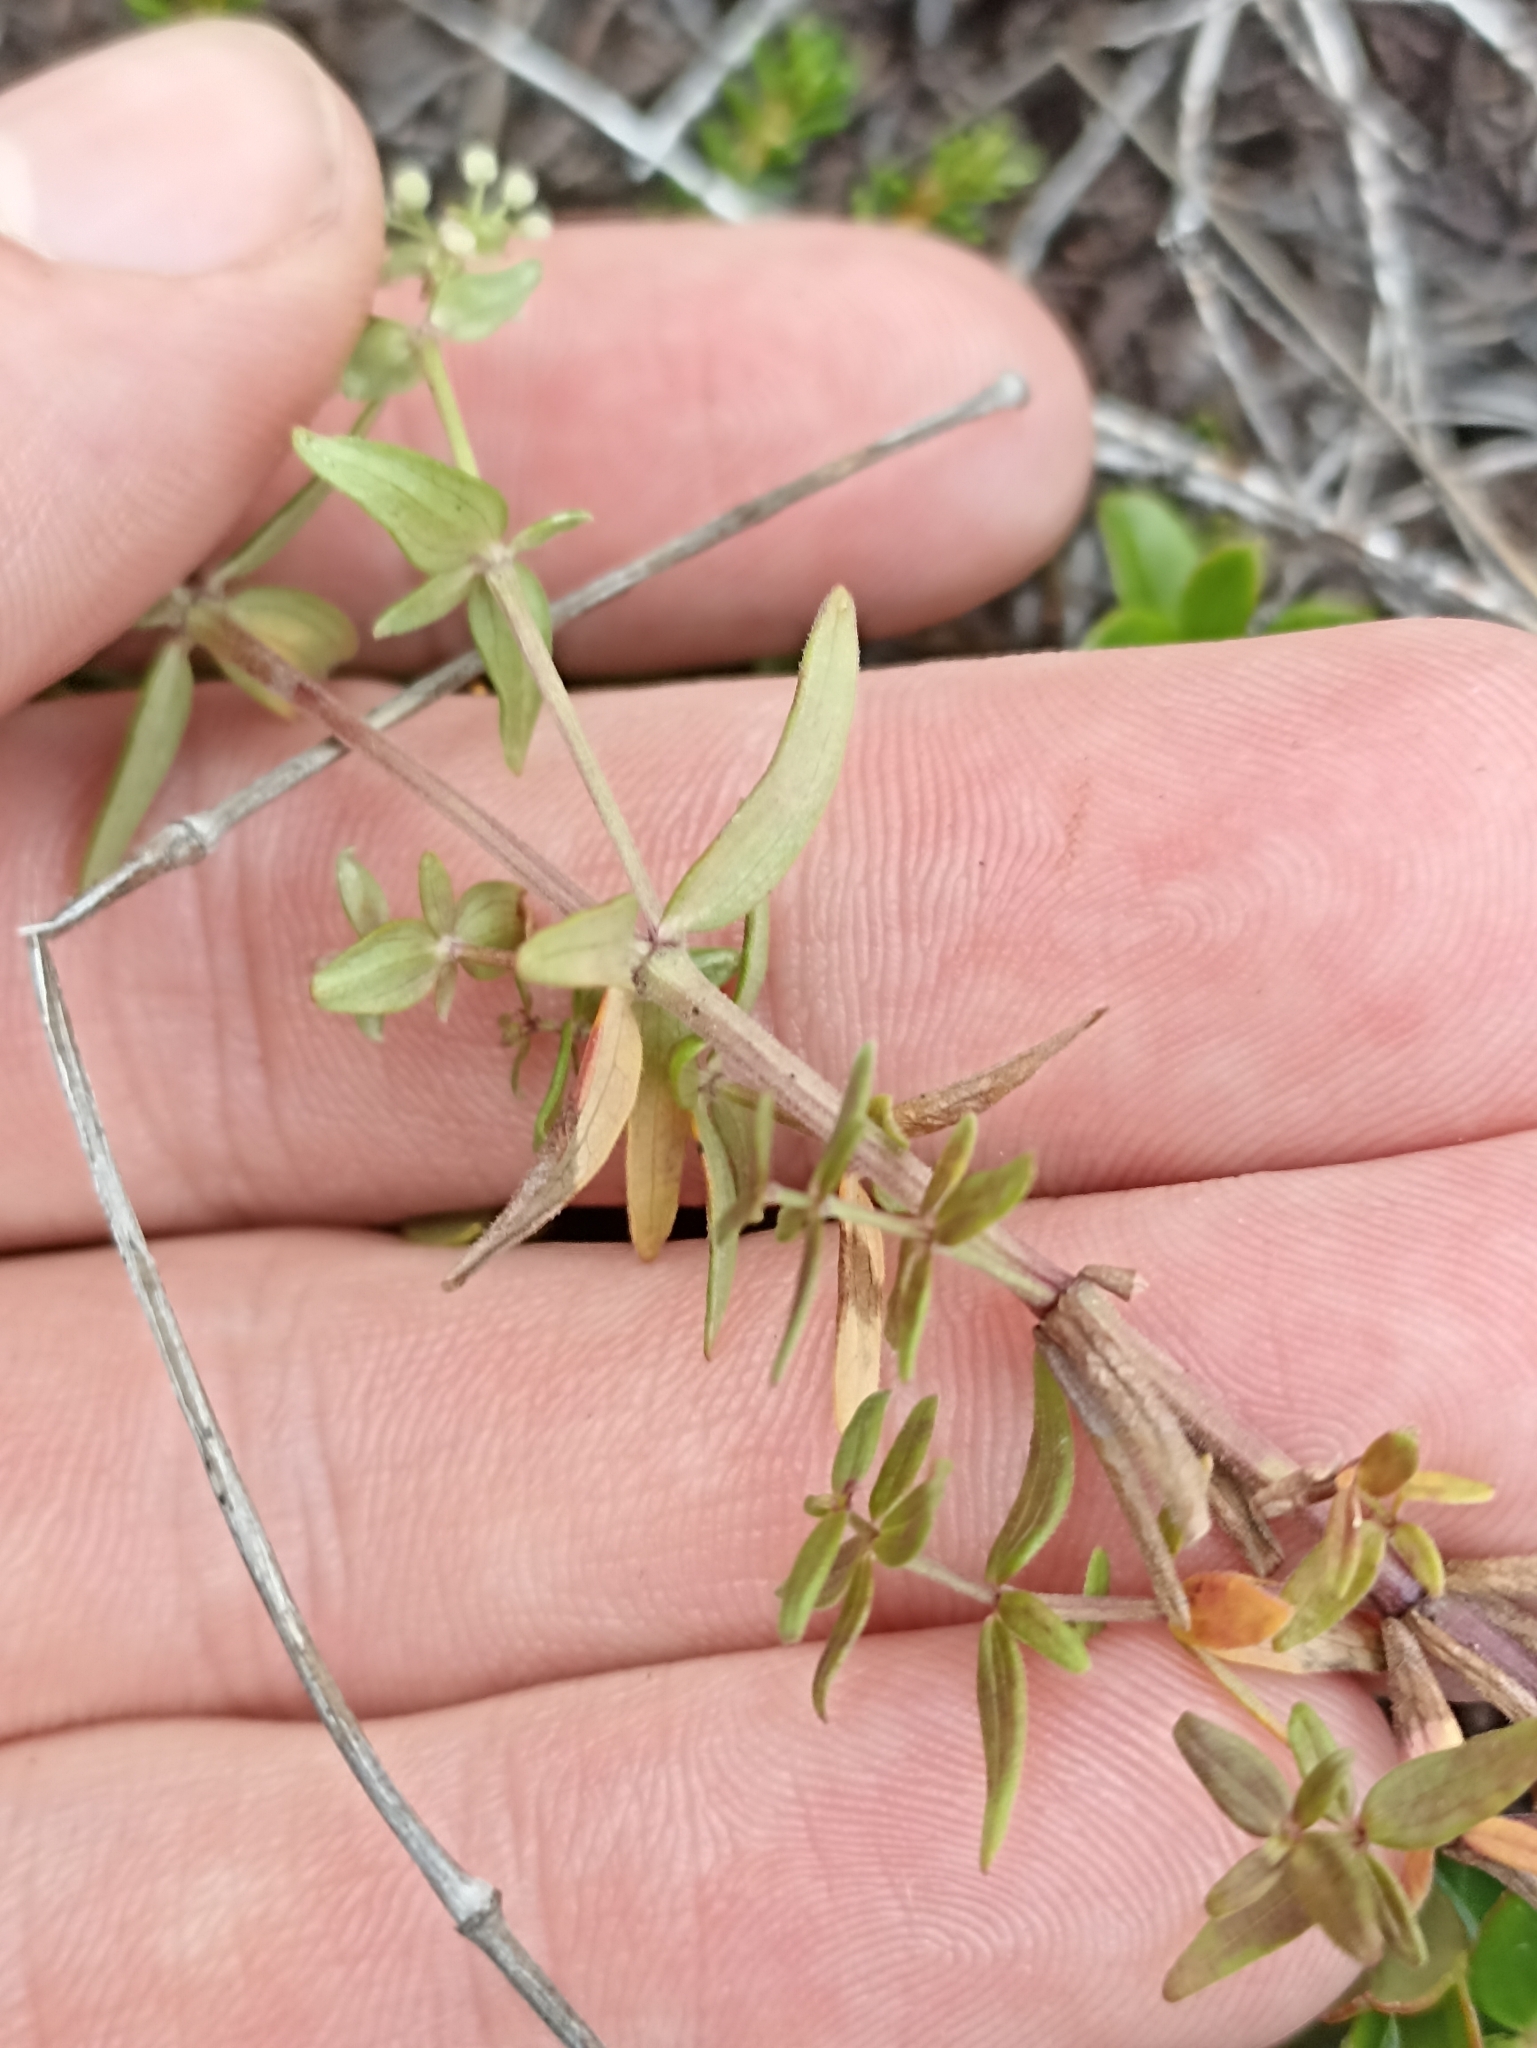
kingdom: Plantae
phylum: Tracheophyta
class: Magnoliopsida
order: Gentianales
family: Rubiaceae
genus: Galium
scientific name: Galium boreale
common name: Northern bedstraw
